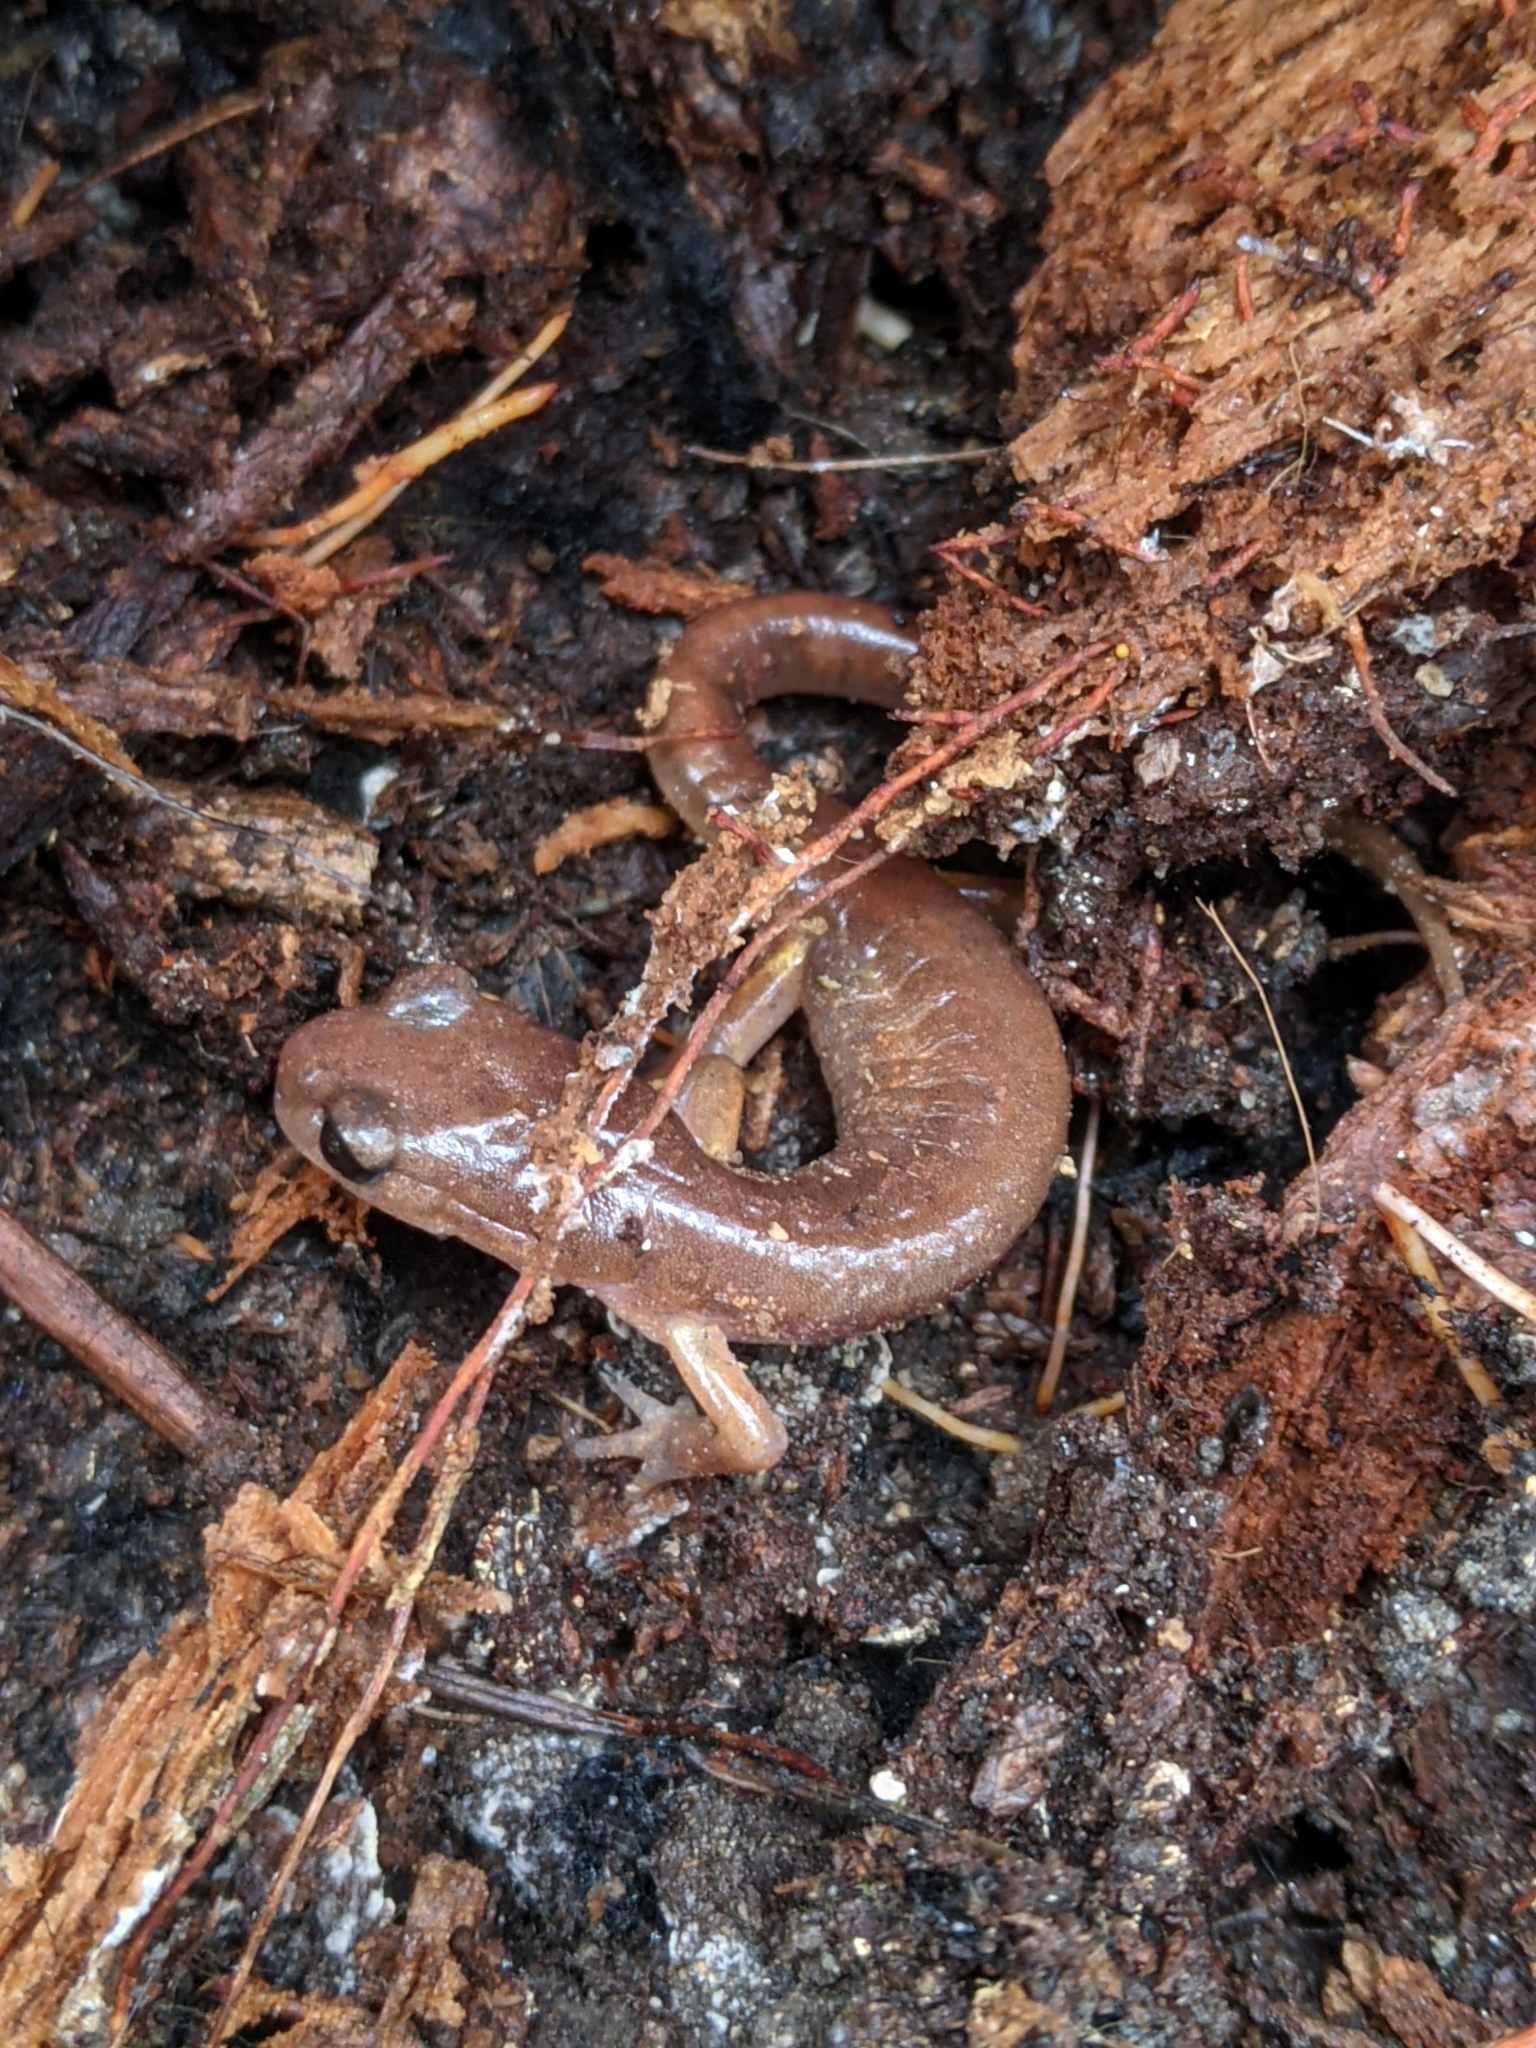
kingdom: Animalia
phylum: Chordata
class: Amphibia
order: Caudata
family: Plethodontidae
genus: Ensatina
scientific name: Ensatina eschscholtzii
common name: Ensatina
